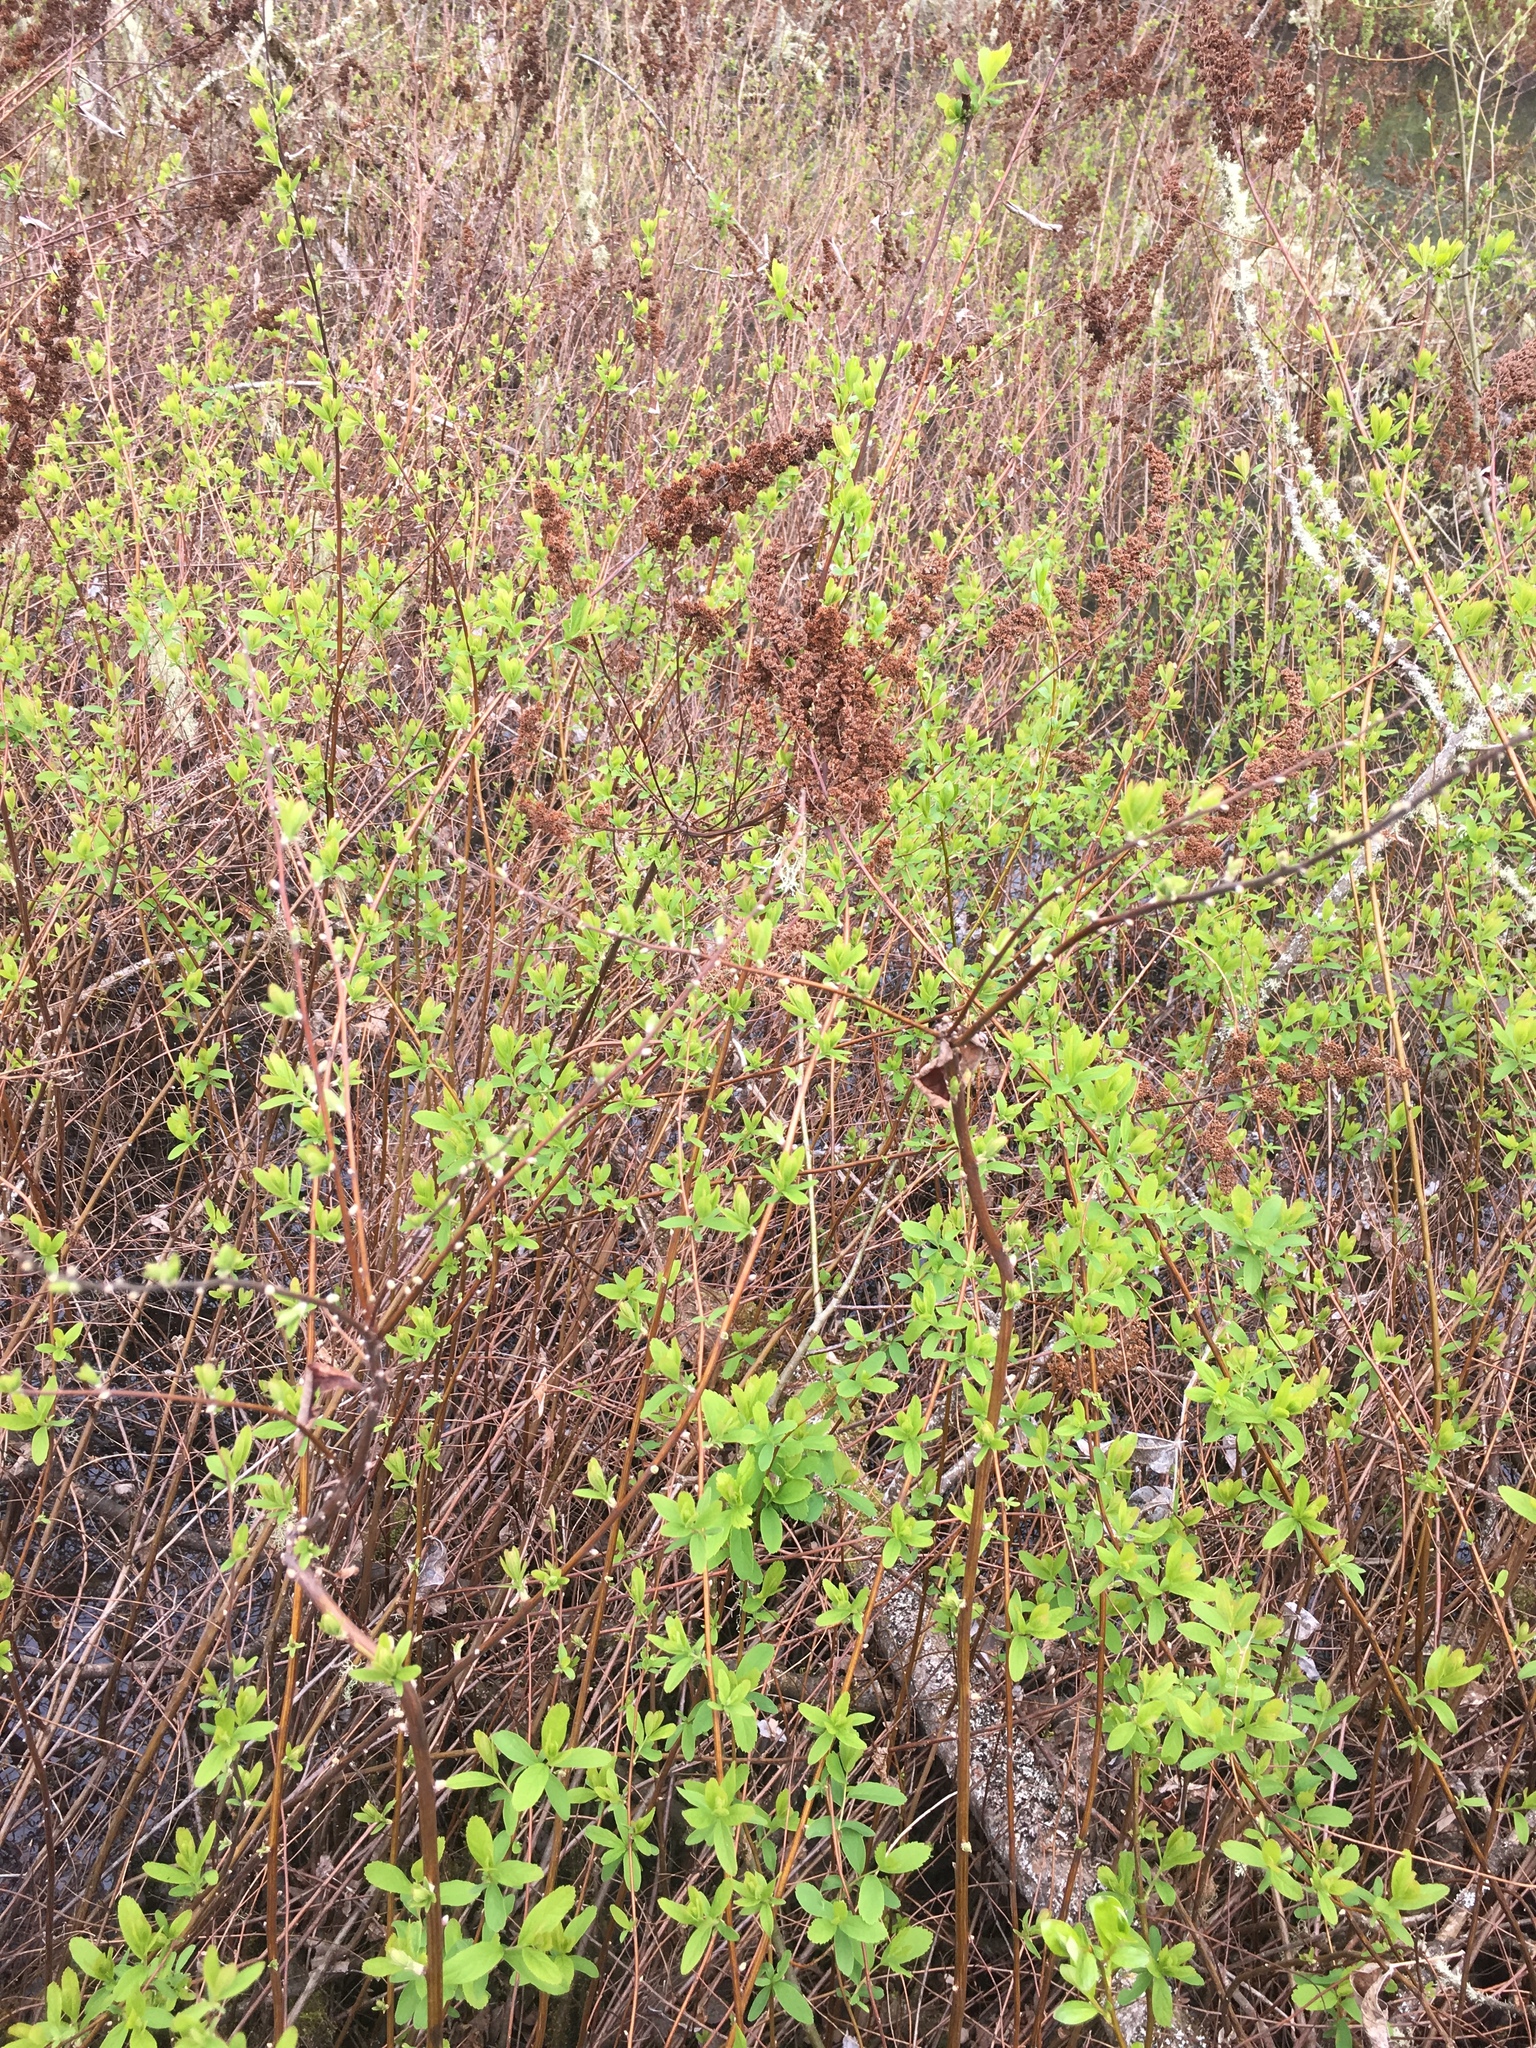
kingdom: Plantae
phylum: Tracheophyta
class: Magnoliopsida
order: Rosales
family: Rosaceae
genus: Spiraea
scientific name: Spiraea douglasii
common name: Steeplebush
